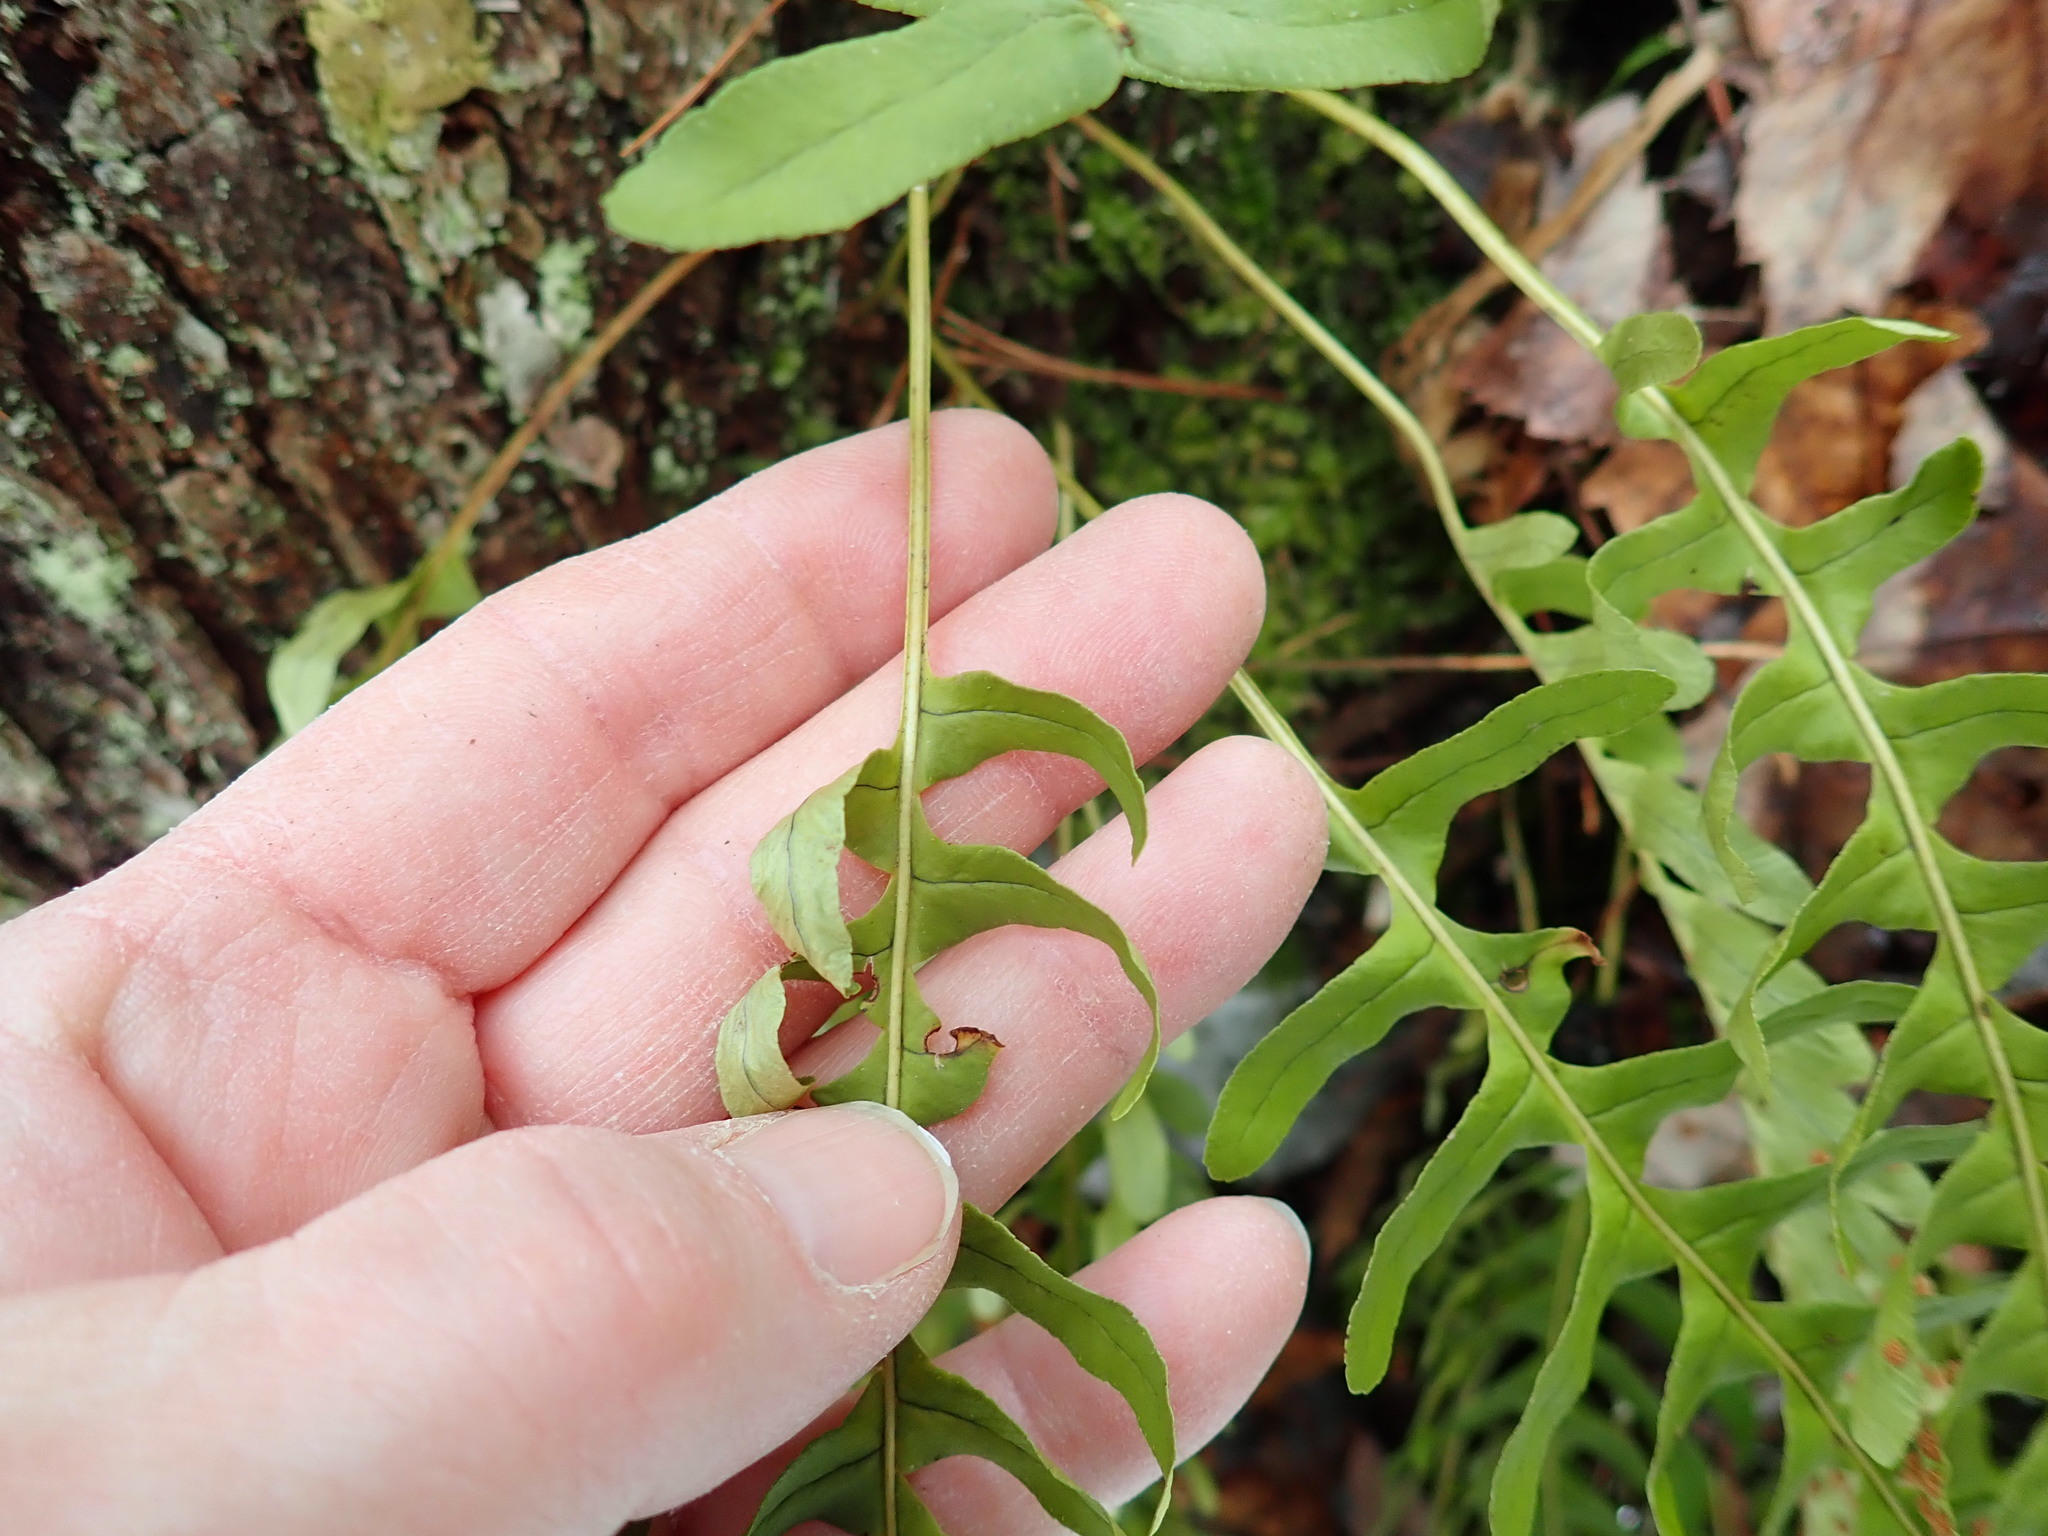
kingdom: Plantae
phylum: Tracheophyta
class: Polypodiopsida
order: Polypodiales
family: Polypodiaceae
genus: Polypodium
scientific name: Polypodium virginianum
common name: American wall fern
